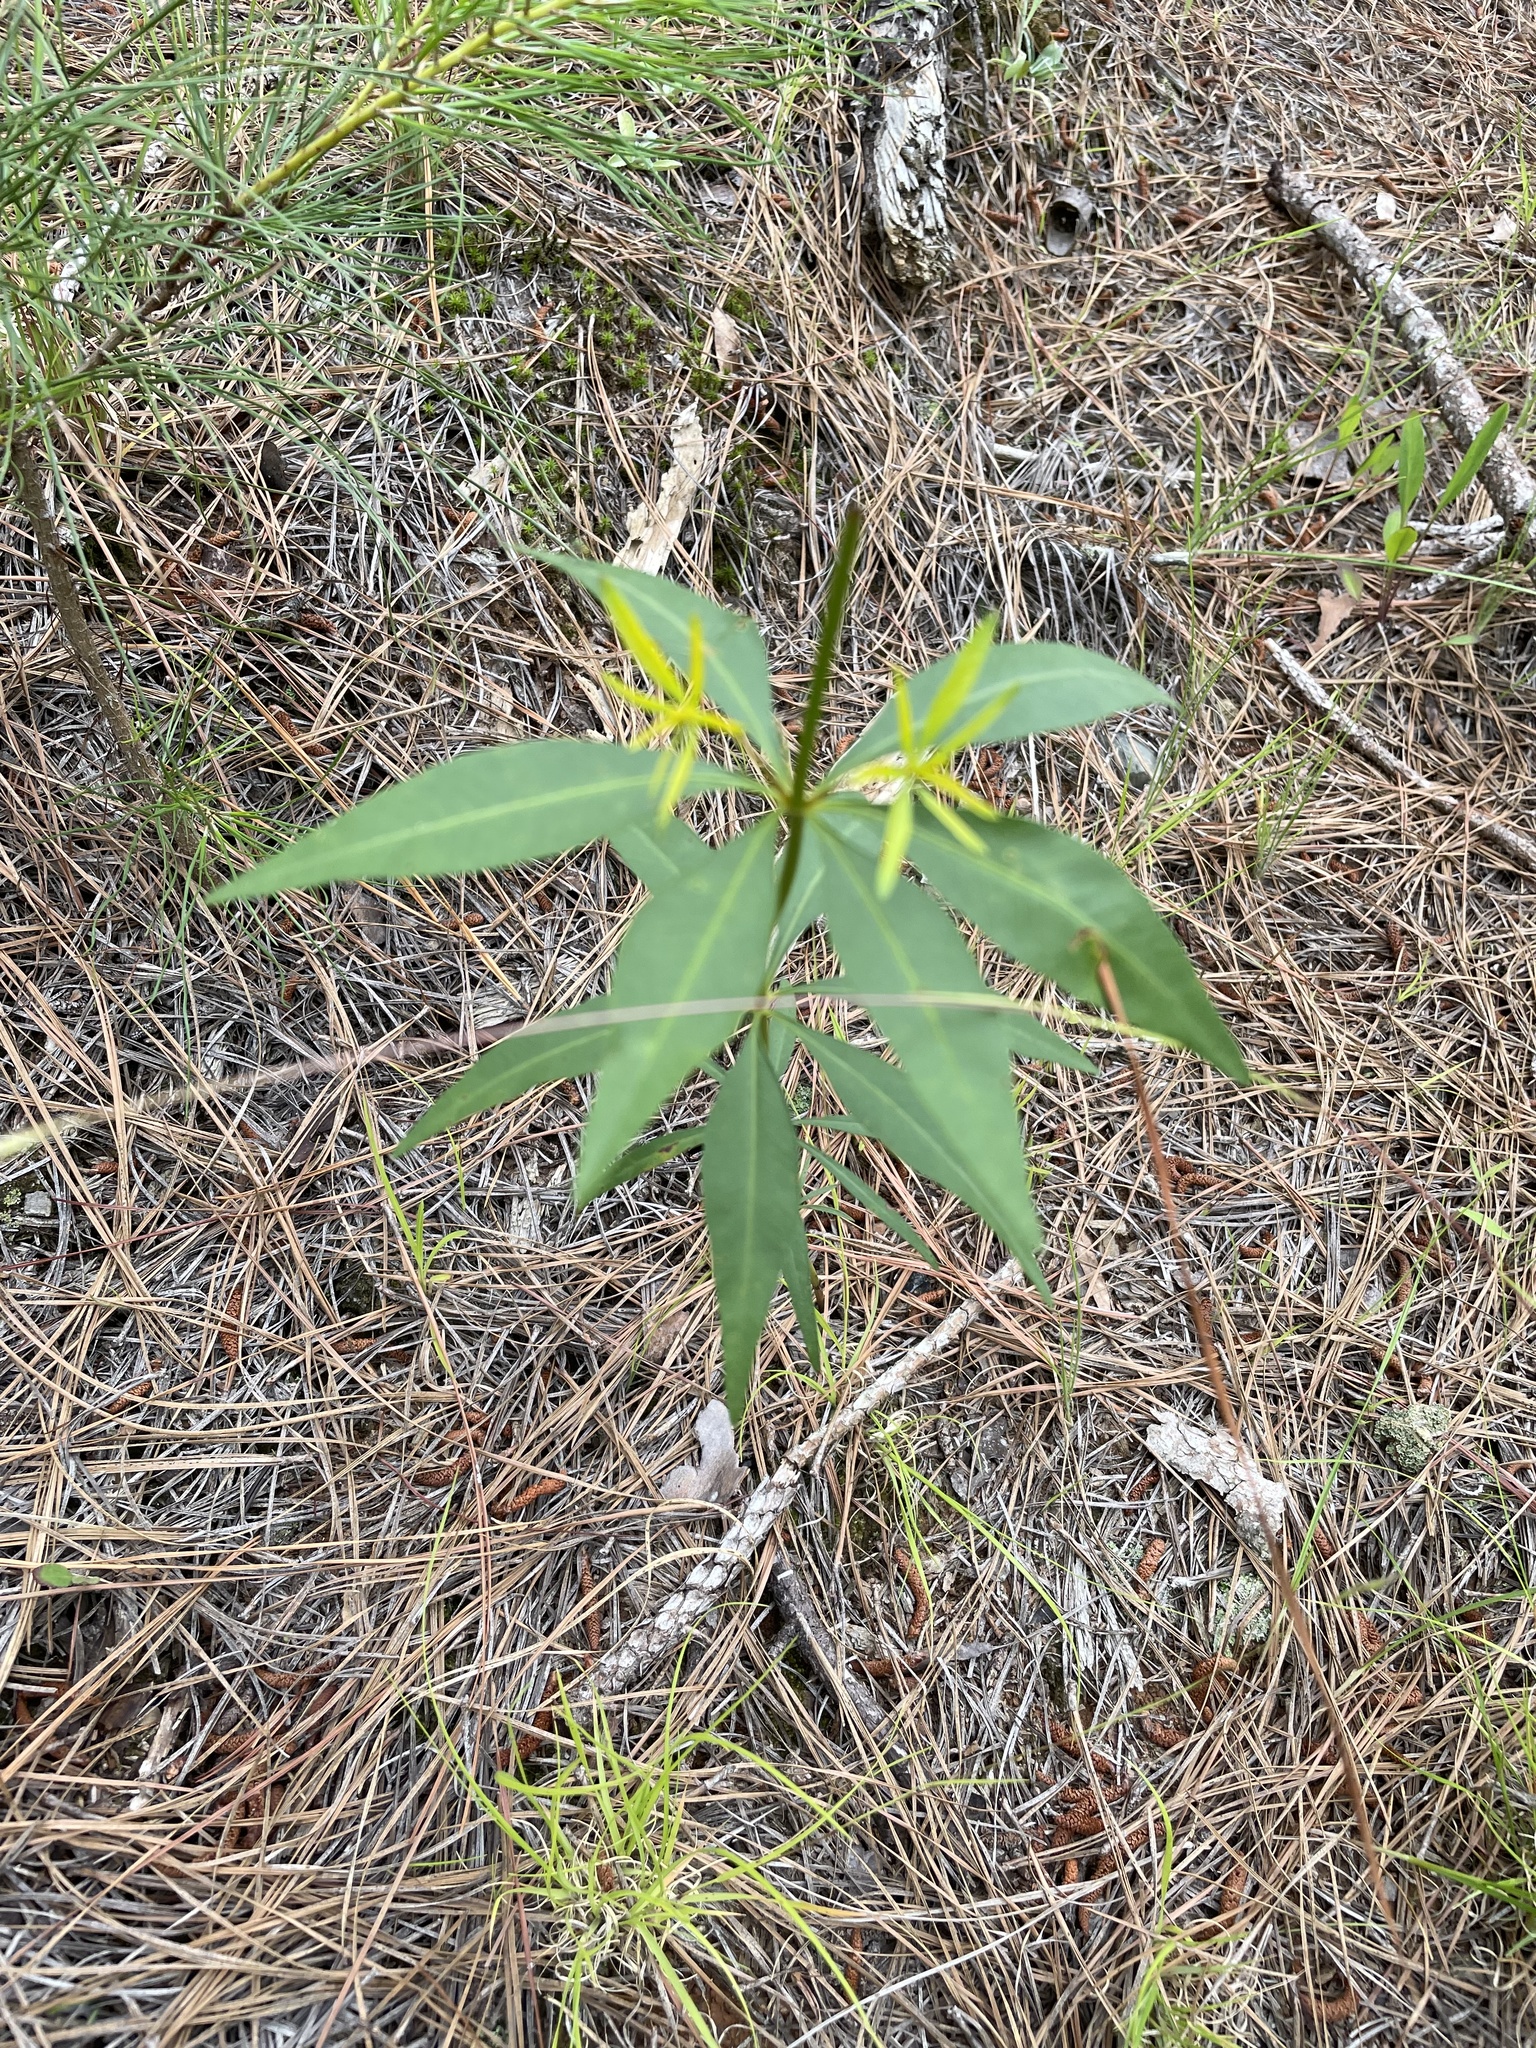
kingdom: Plantae
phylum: Tracheophyta
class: Magnoliopsida
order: Asterales
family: Asteraceae
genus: Coreopsis
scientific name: Coreopsis major
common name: Forest tickseed
